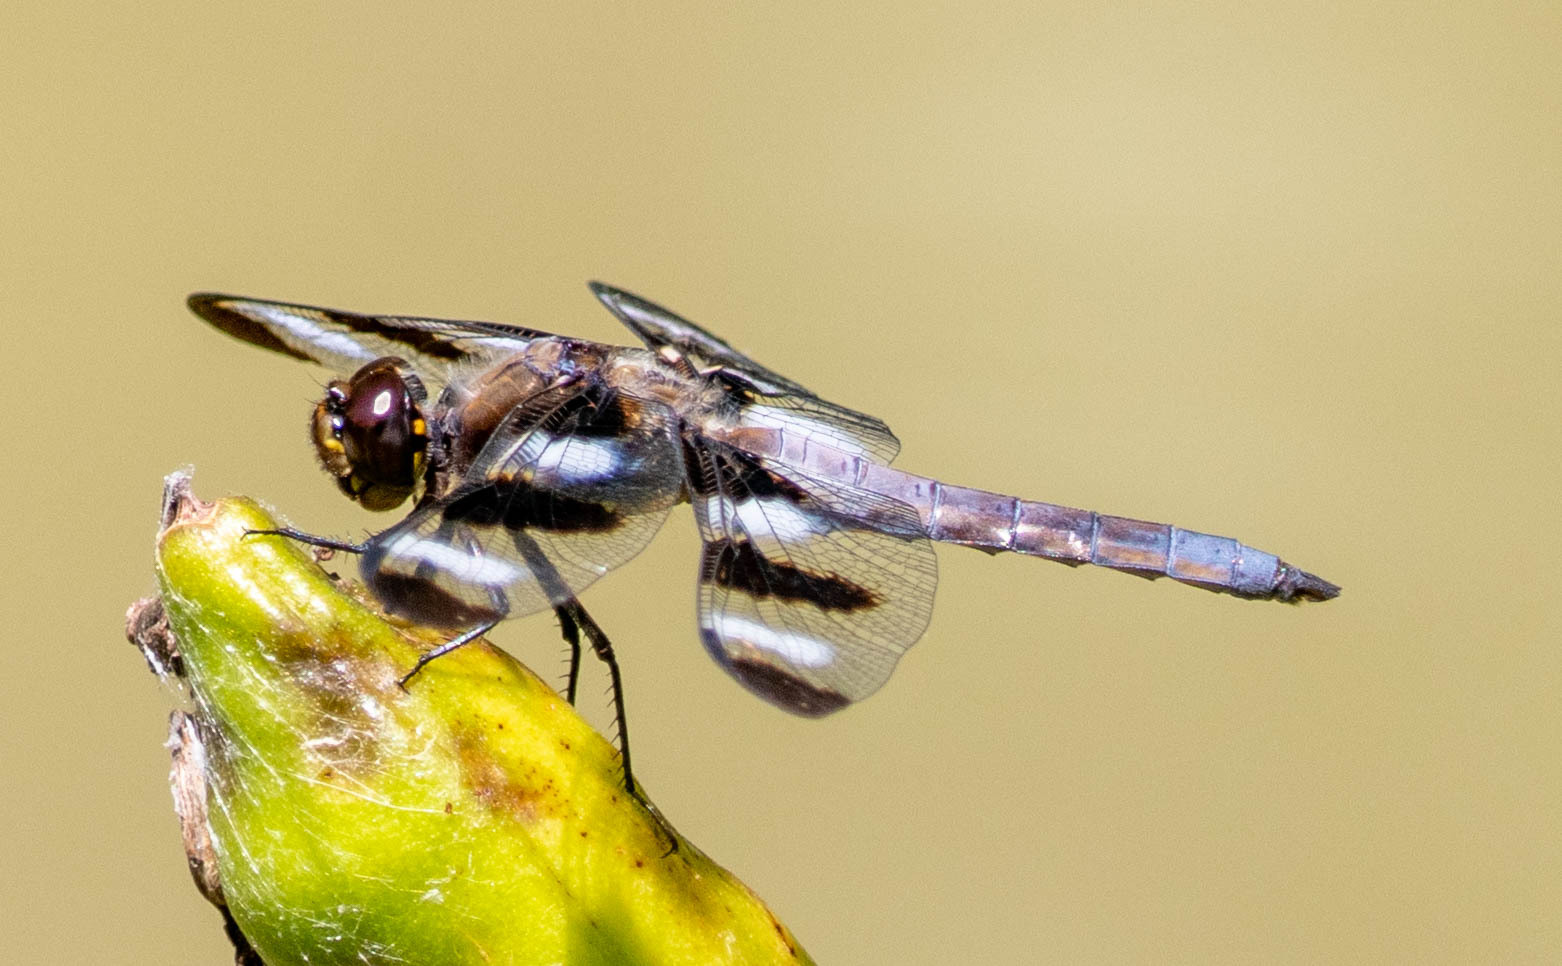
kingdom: Animalia
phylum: Arthropoda
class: Insecta
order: Odonata
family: Libellulidae
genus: Libellula
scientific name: Libellula pulchella
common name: Twelve-spotted skimmer
